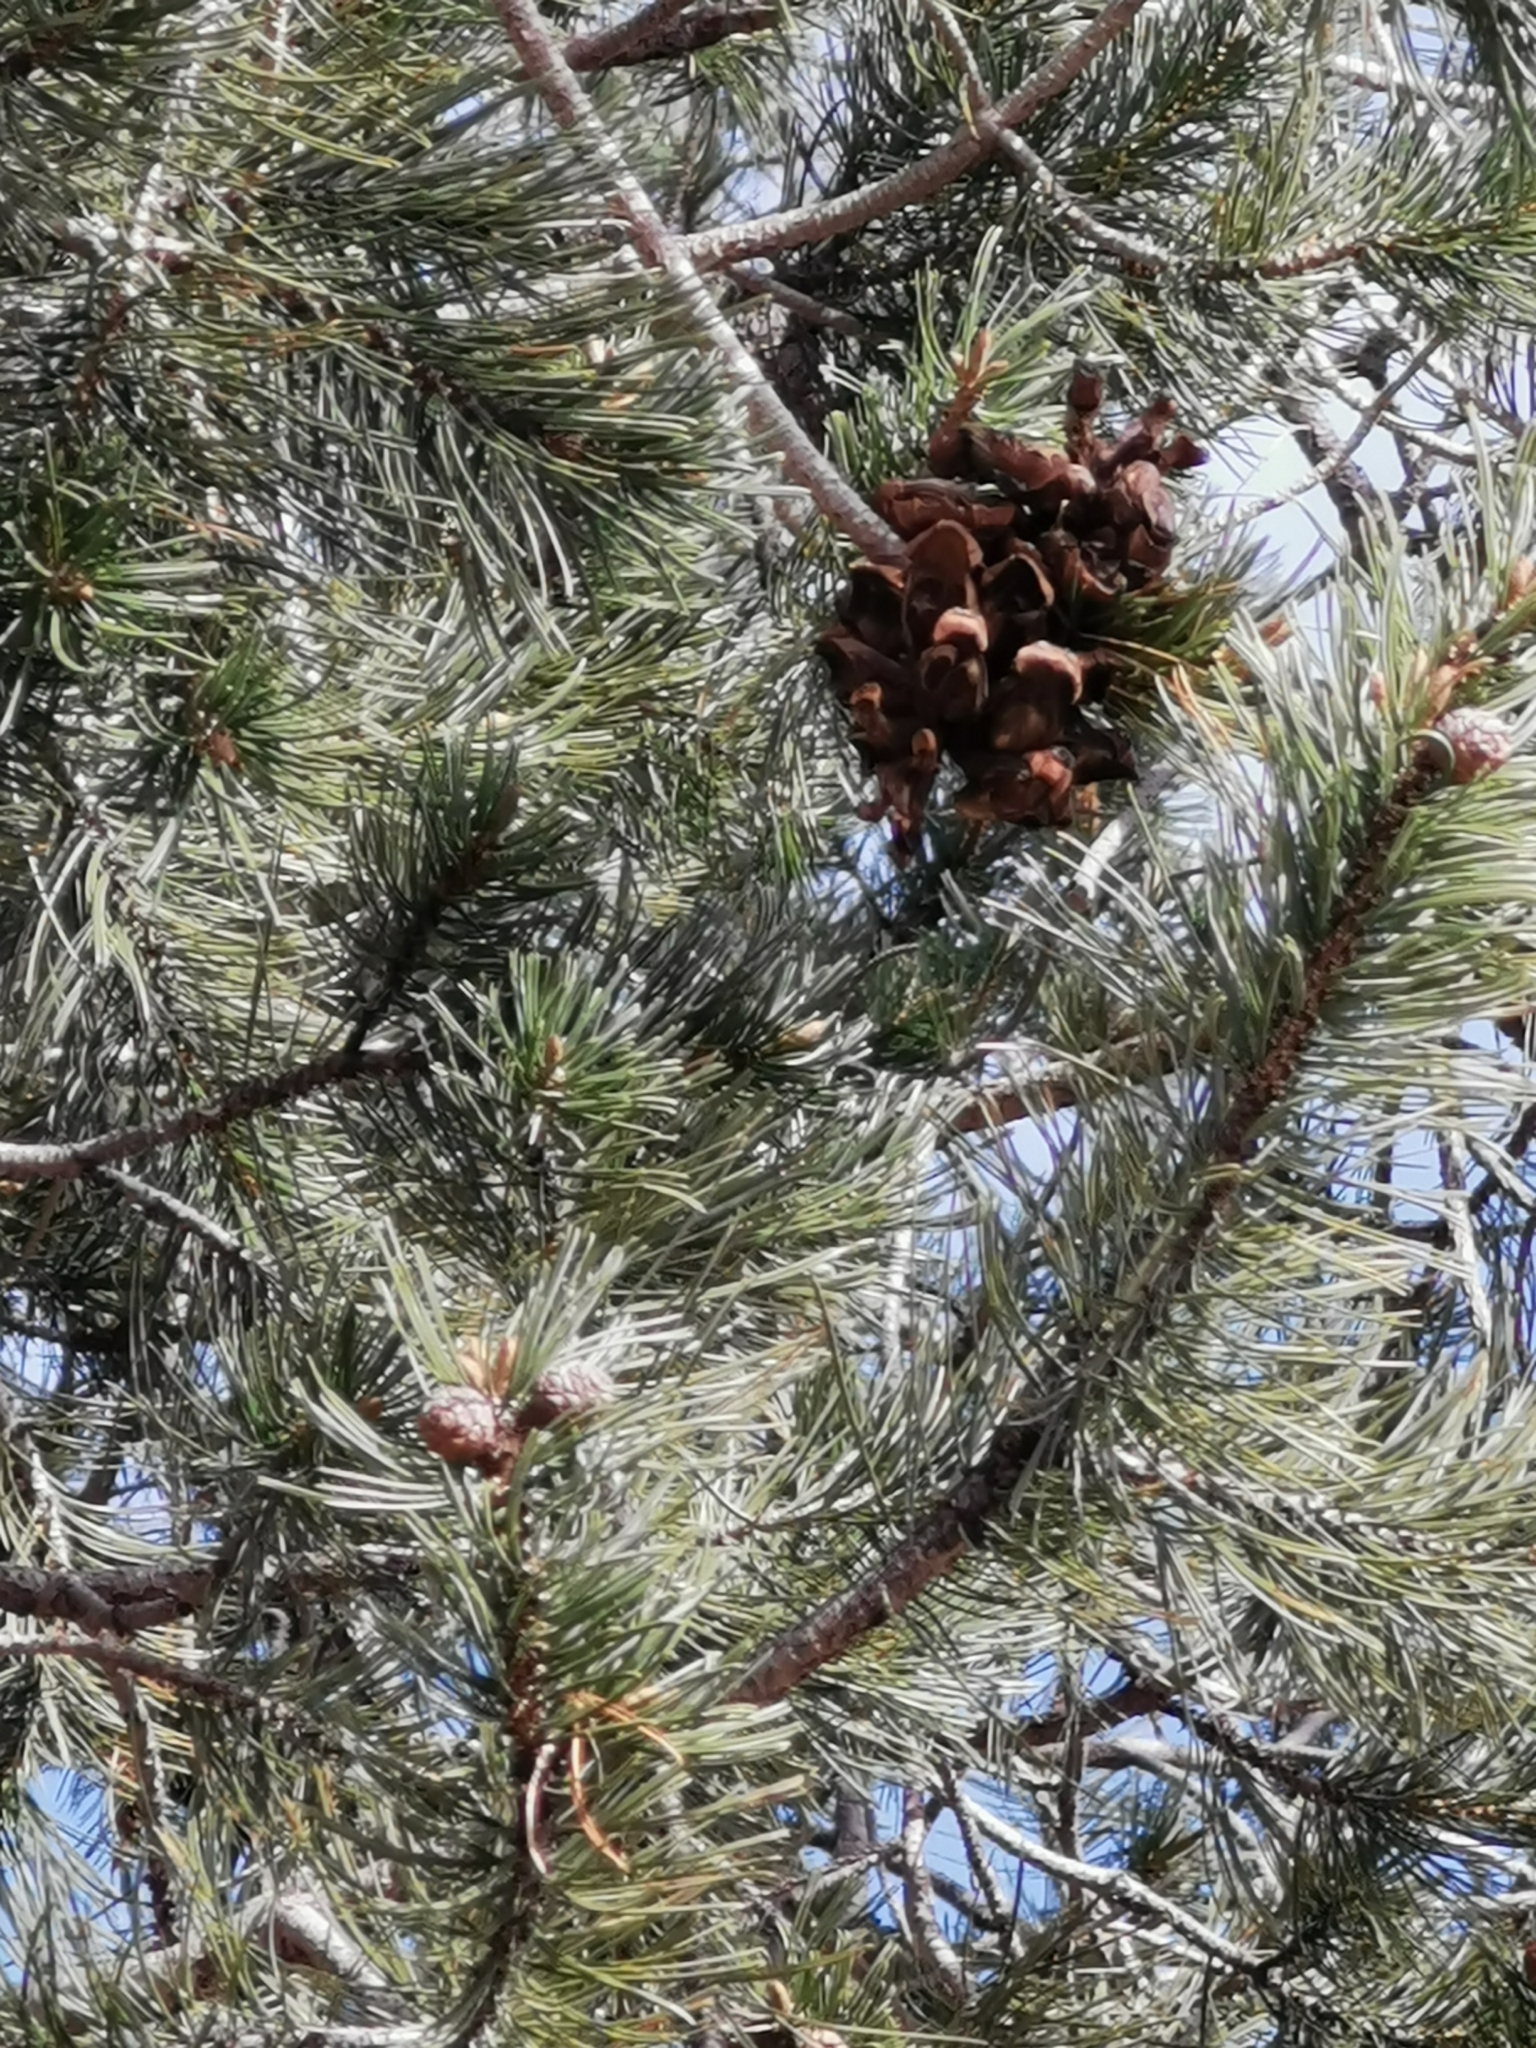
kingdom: Plantae
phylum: Tracheophyta
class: Pinopsida
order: Pinales
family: Pinaceae
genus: Pinus
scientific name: Pinus cembroides
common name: Mexican nut pine
